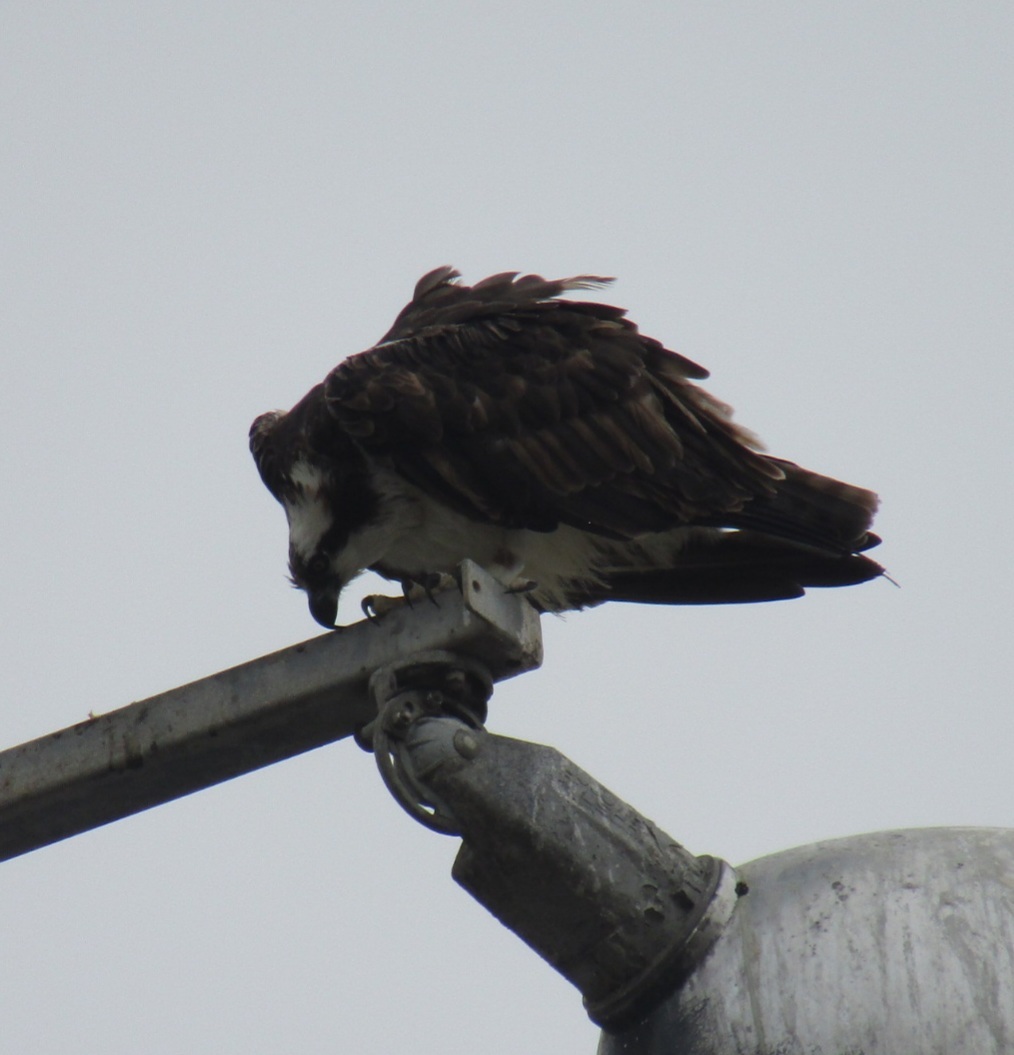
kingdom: Animalia
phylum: Chordata
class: Aves
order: Accipitriformes
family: Pandionidae
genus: Pandion
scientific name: Pandion haliaetus
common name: Osprey
